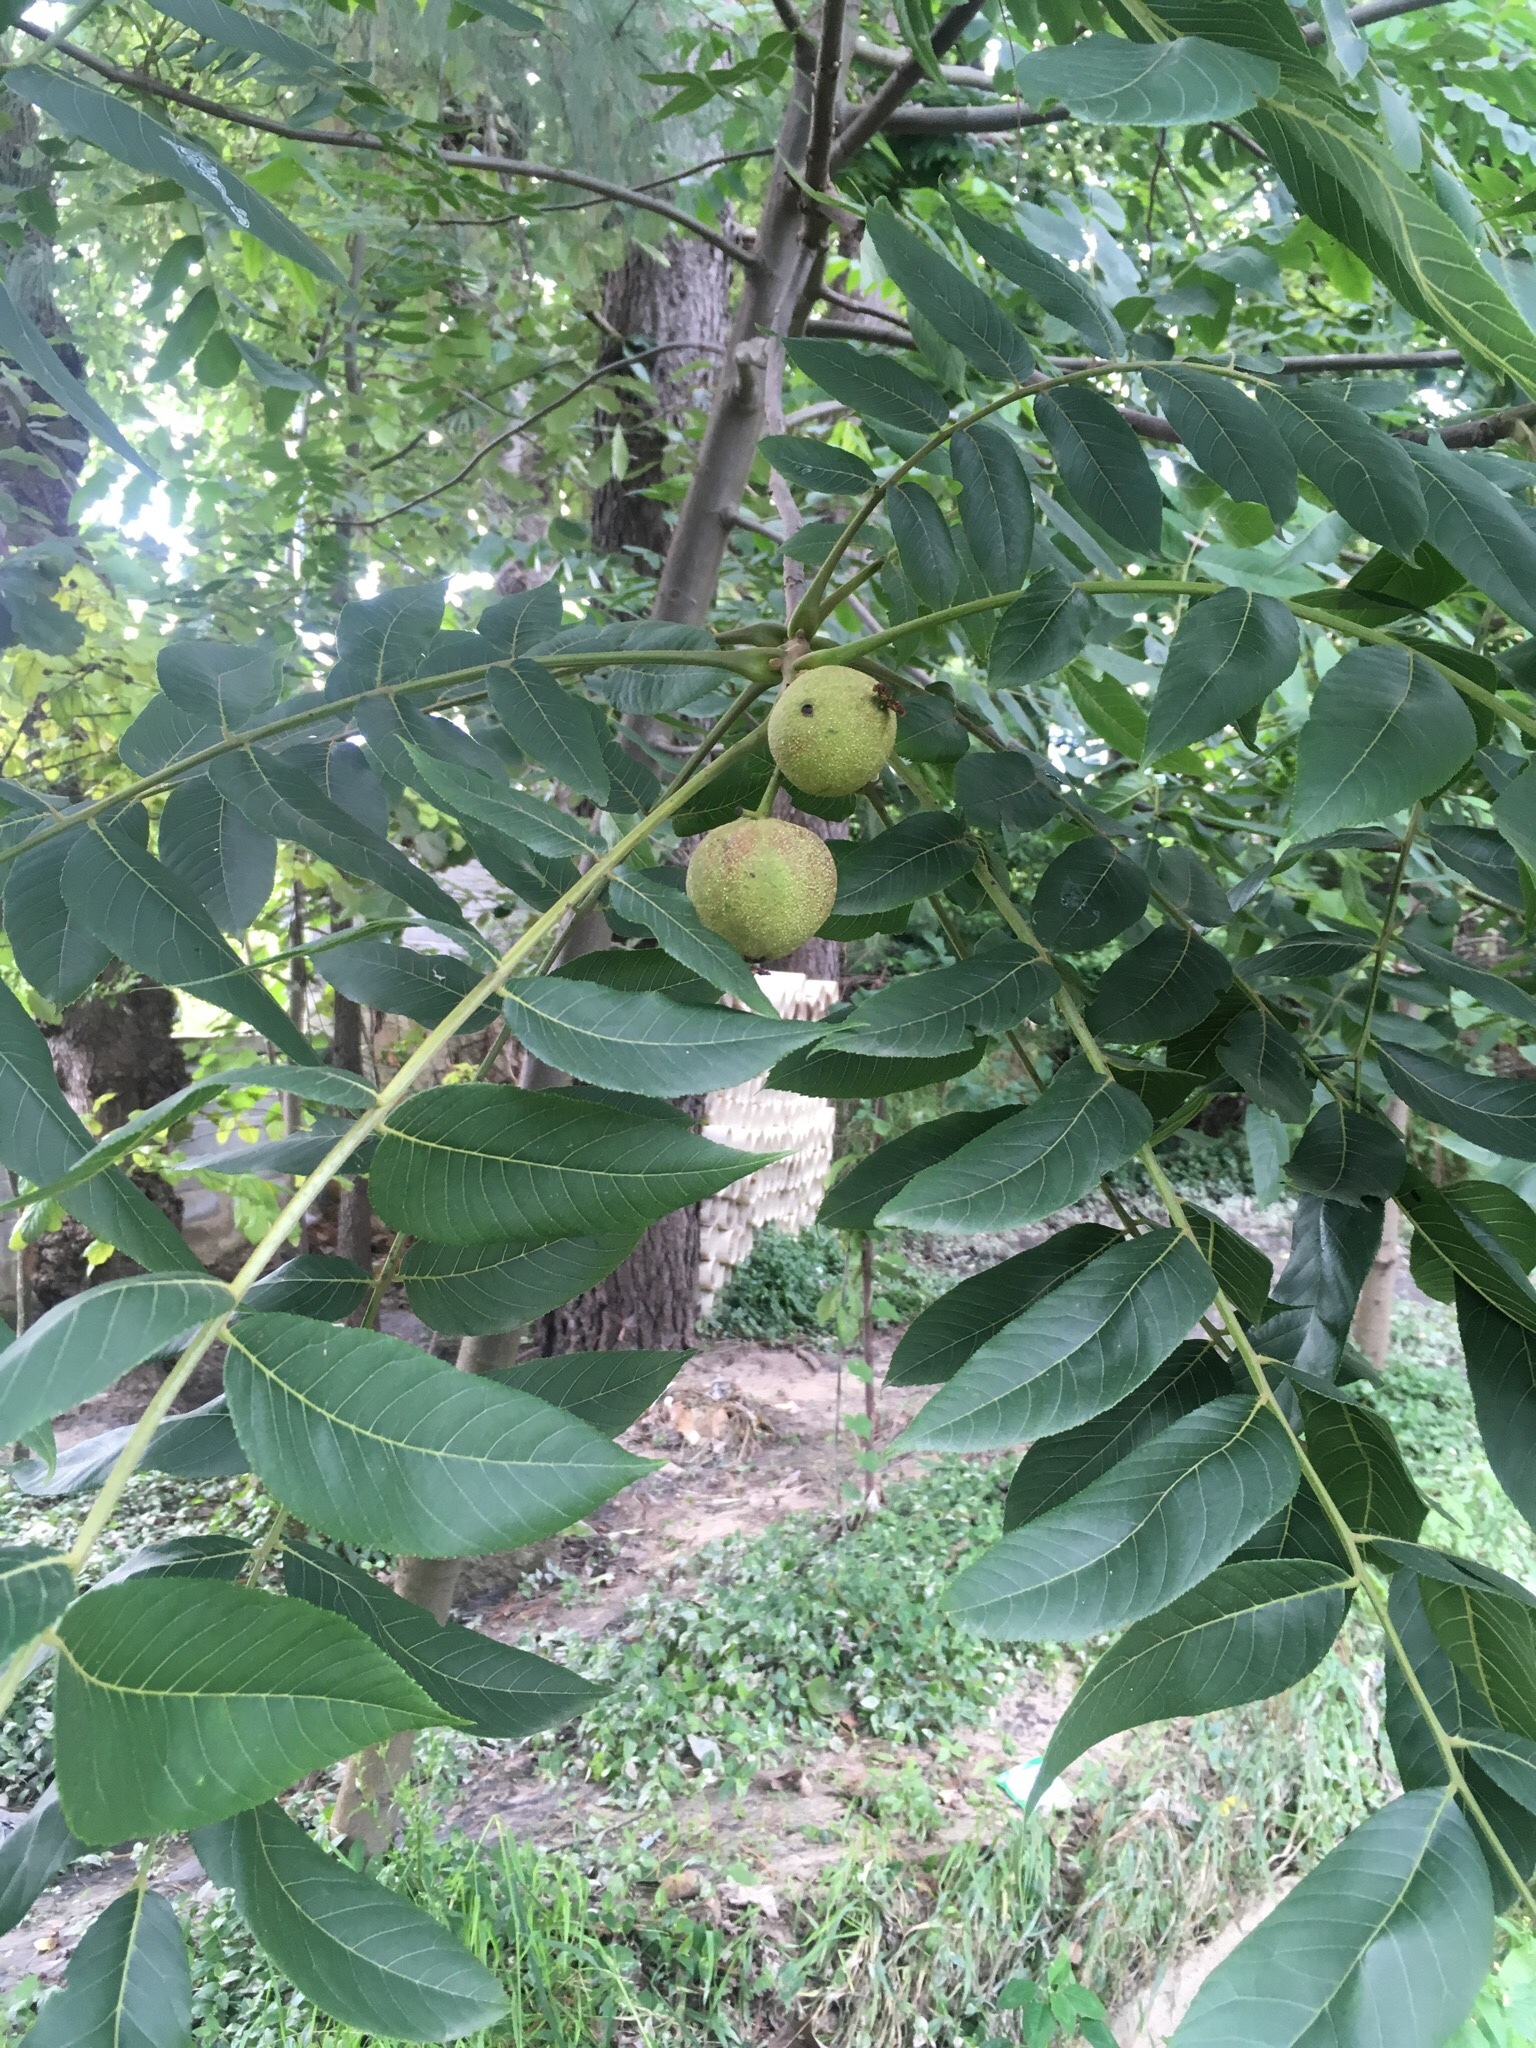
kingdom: Plantae
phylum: Tracheophyta
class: Magnoliopsida
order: Fagales
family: Juglandaceae
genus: Juglans
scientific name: Juglans olanchana
